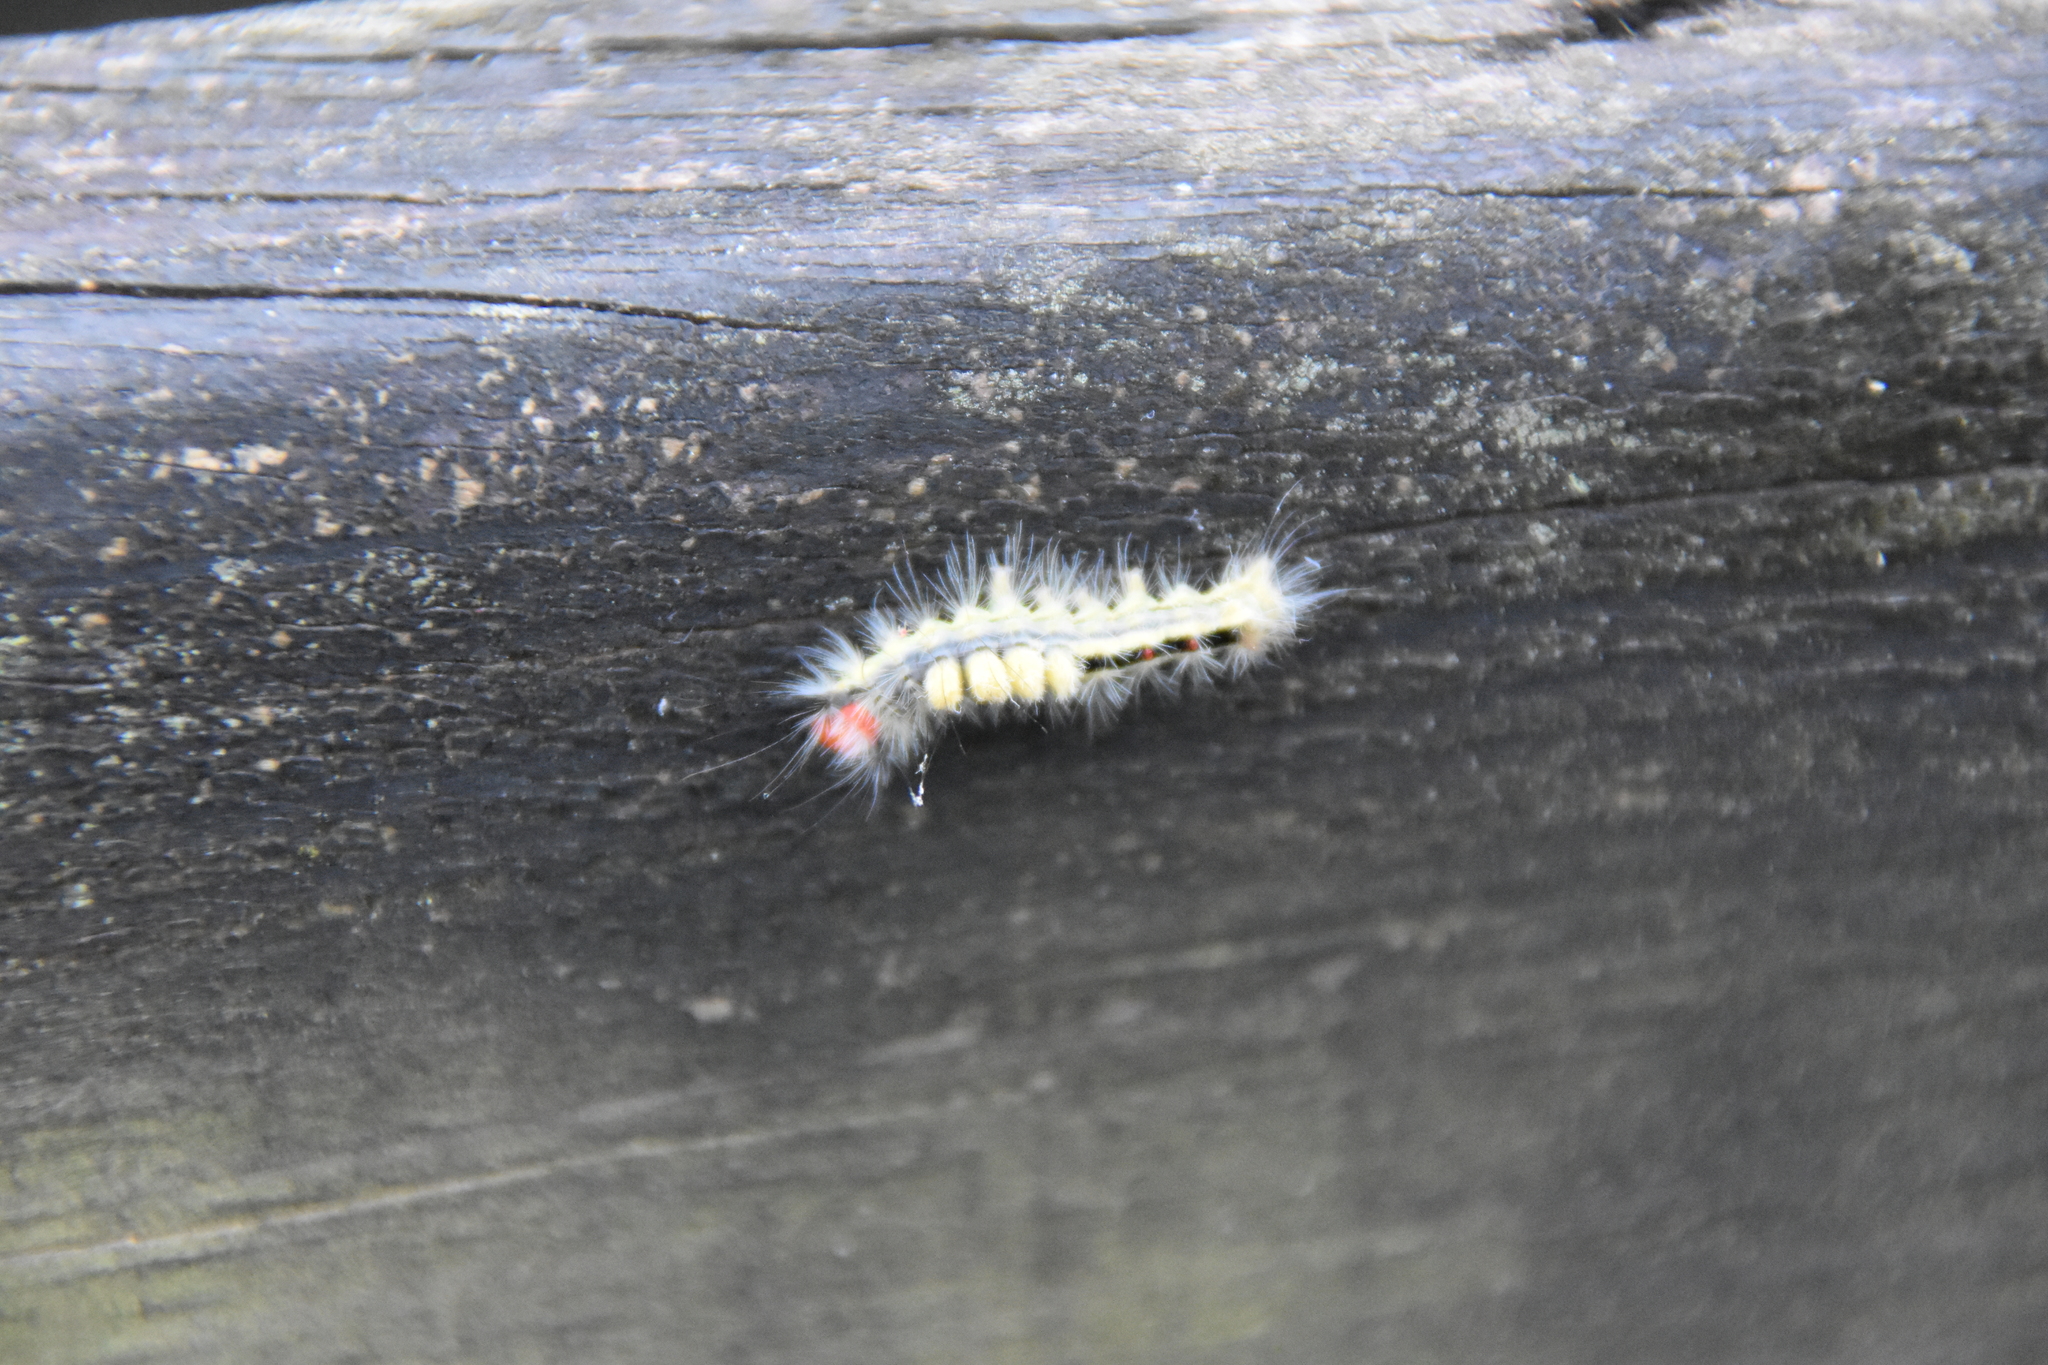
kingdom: Animalia
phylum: Arthropoda
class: Insecta
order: Lepidoptera
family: Erebidae
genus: Orgyia
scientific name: Orgyia leucostigma
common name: White-marked tussock moth
